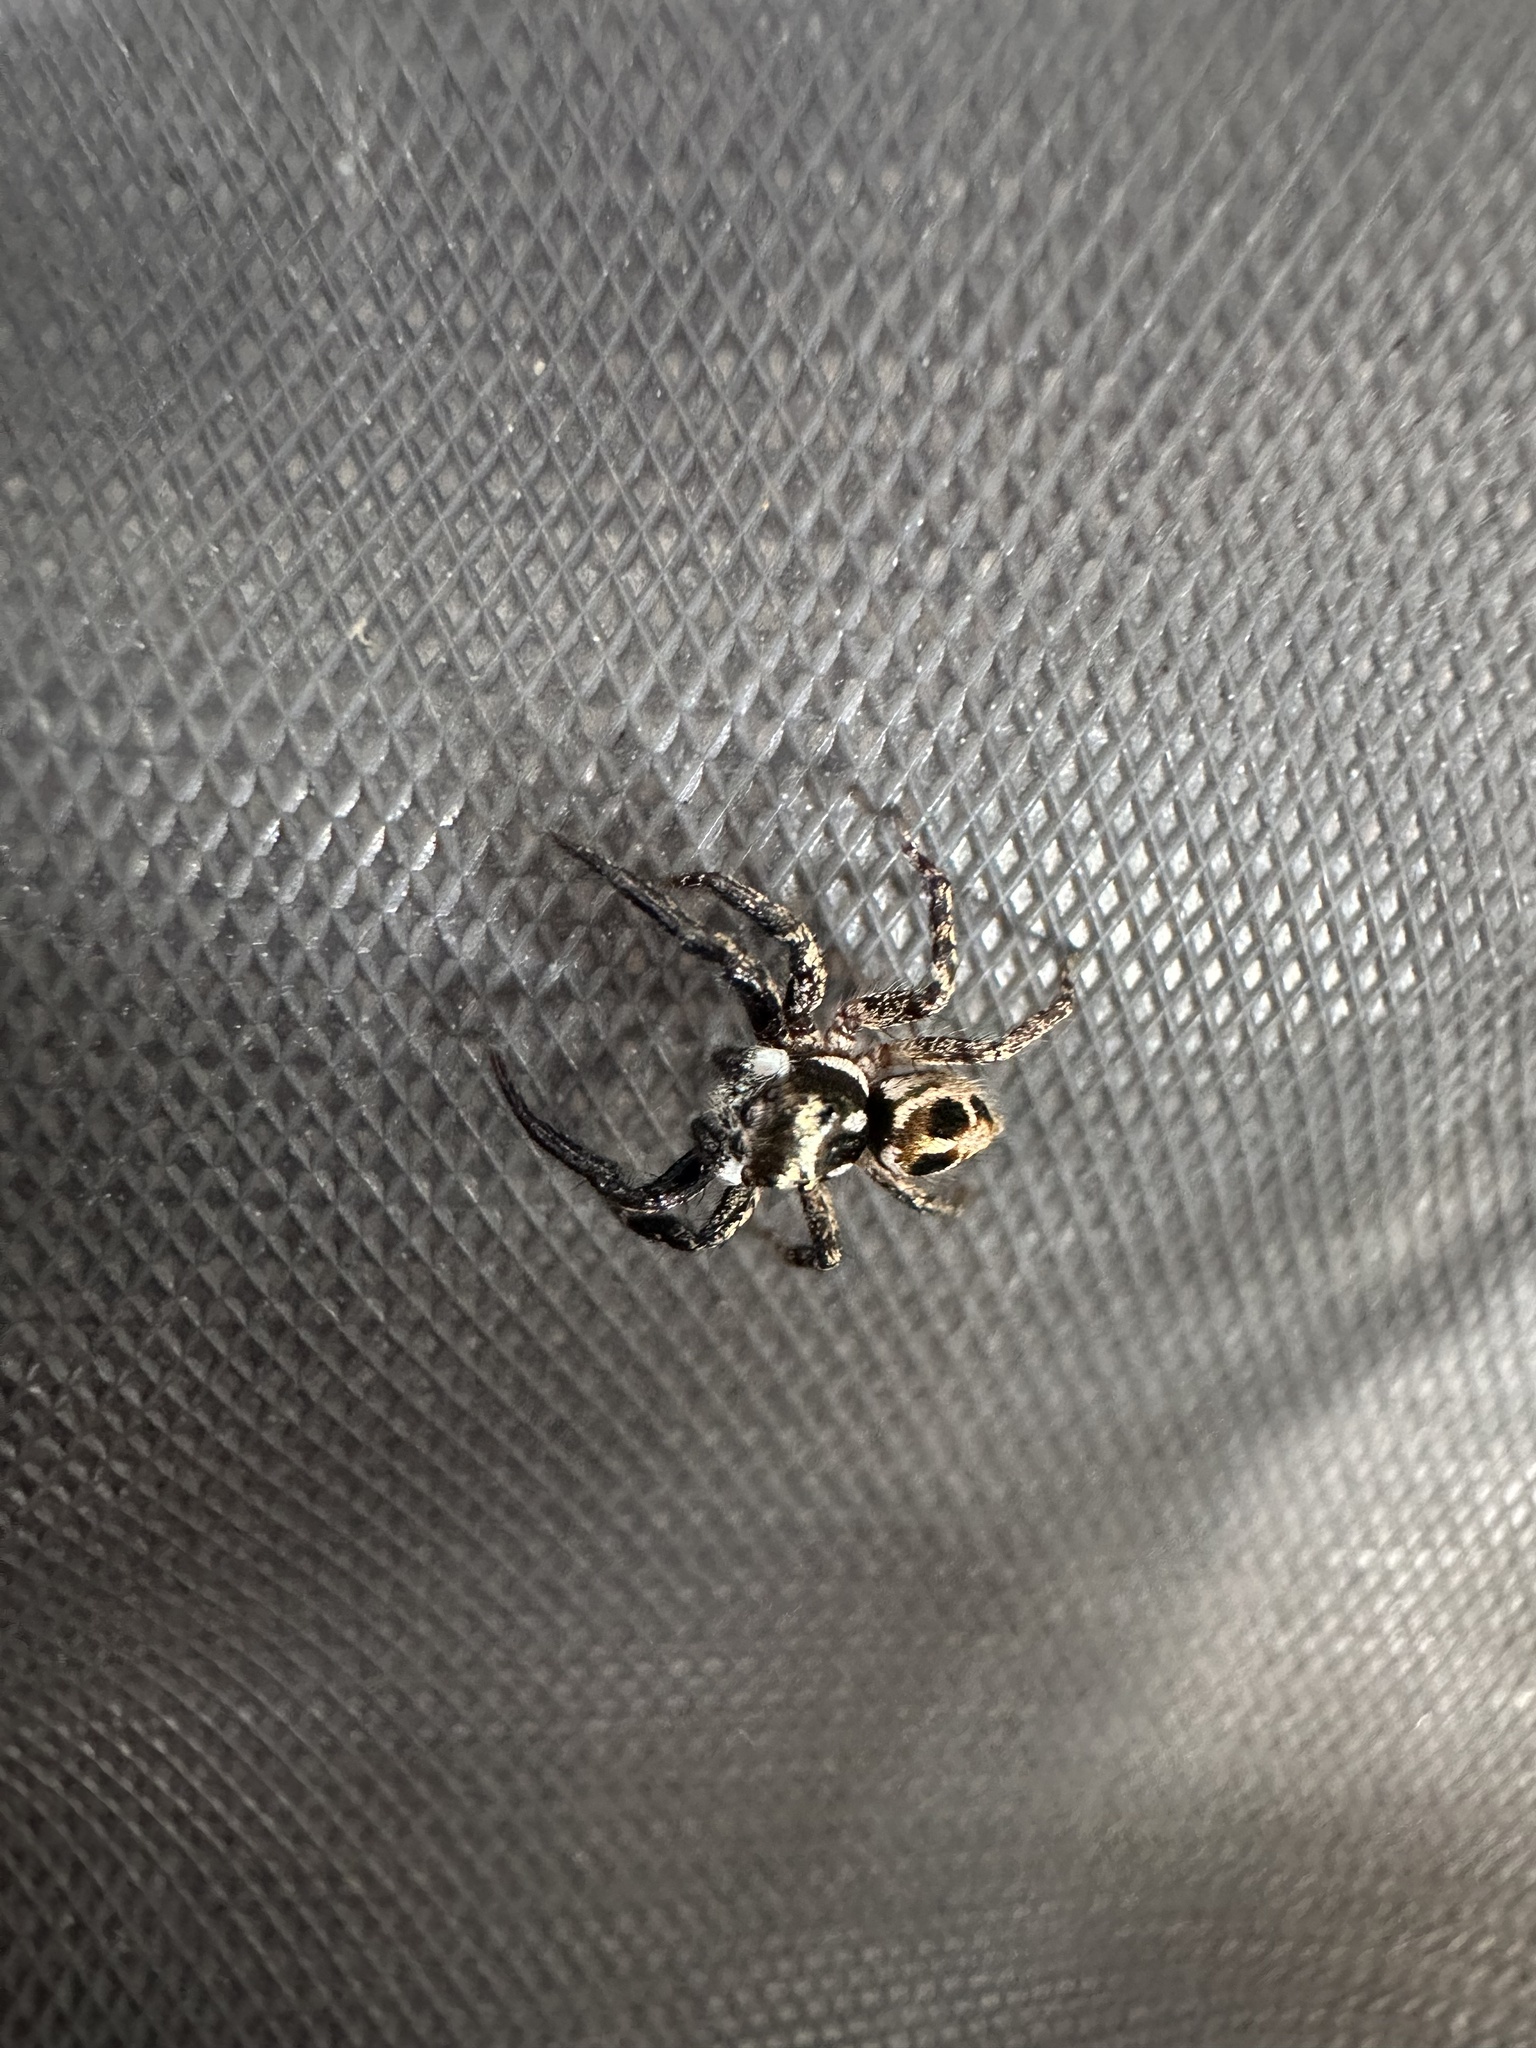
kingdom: Animalia
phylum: Arthropoda
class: Arachnida
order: Araneae
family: Salticidae
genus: Anasaitis
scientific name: Anasaitis canosa
